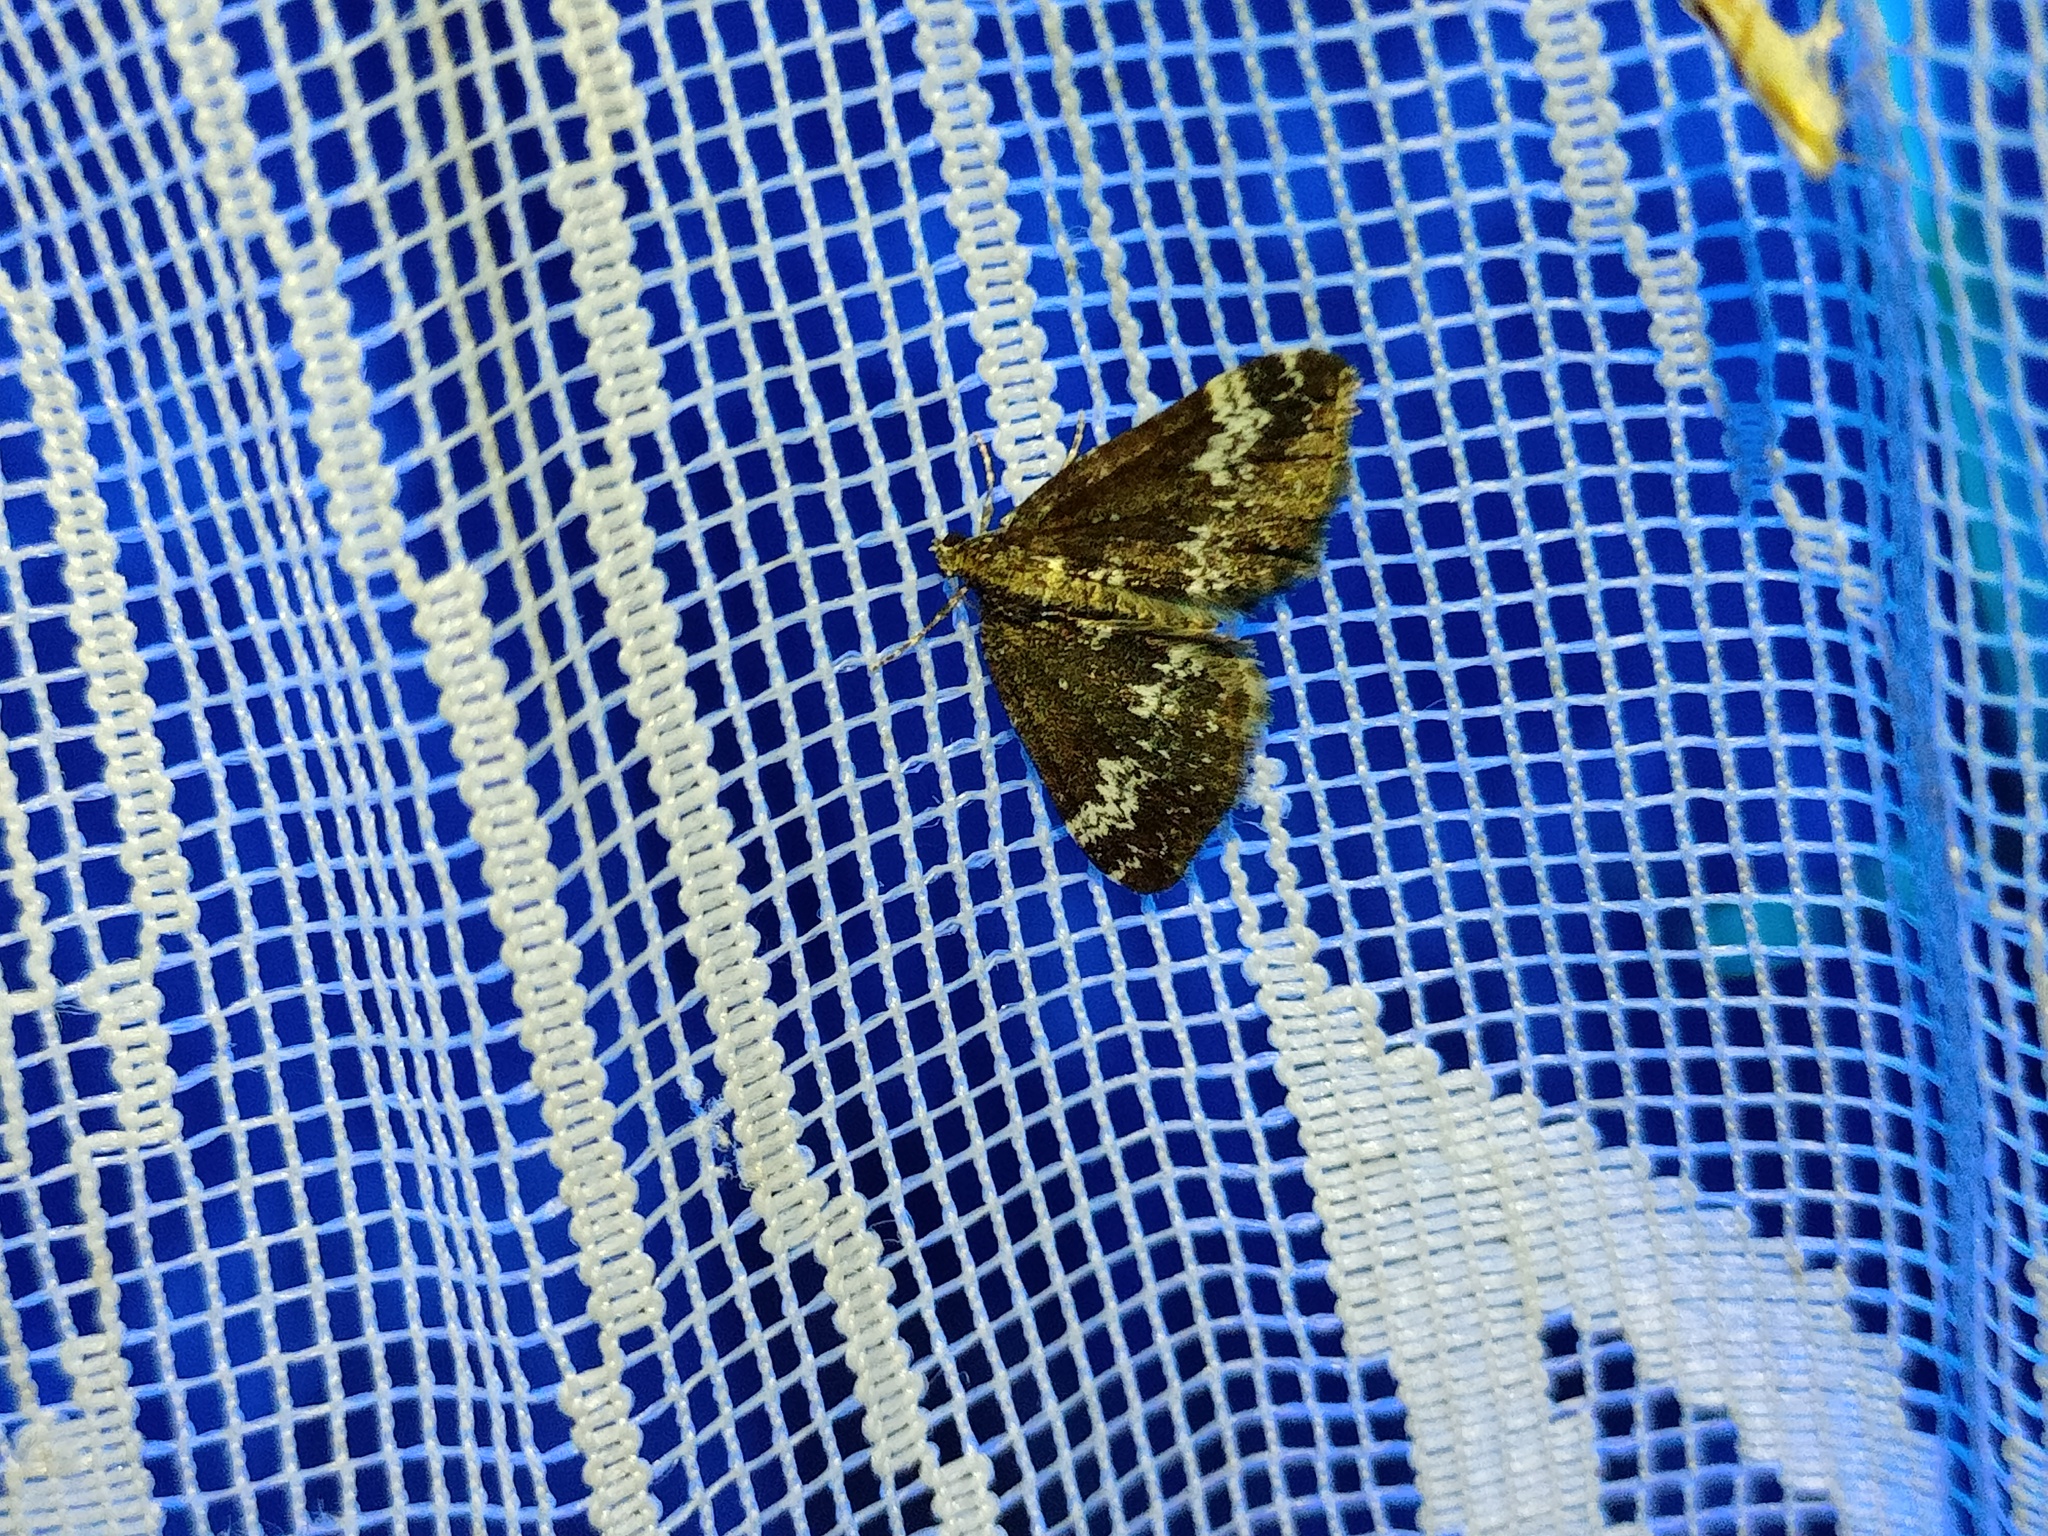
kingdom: Animalia
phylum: Arthropoda
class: Insecta
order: Lepidoptera
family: Geometridae
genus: Perizoma
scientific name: Perizoma alchemillata
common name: Small rivulet
